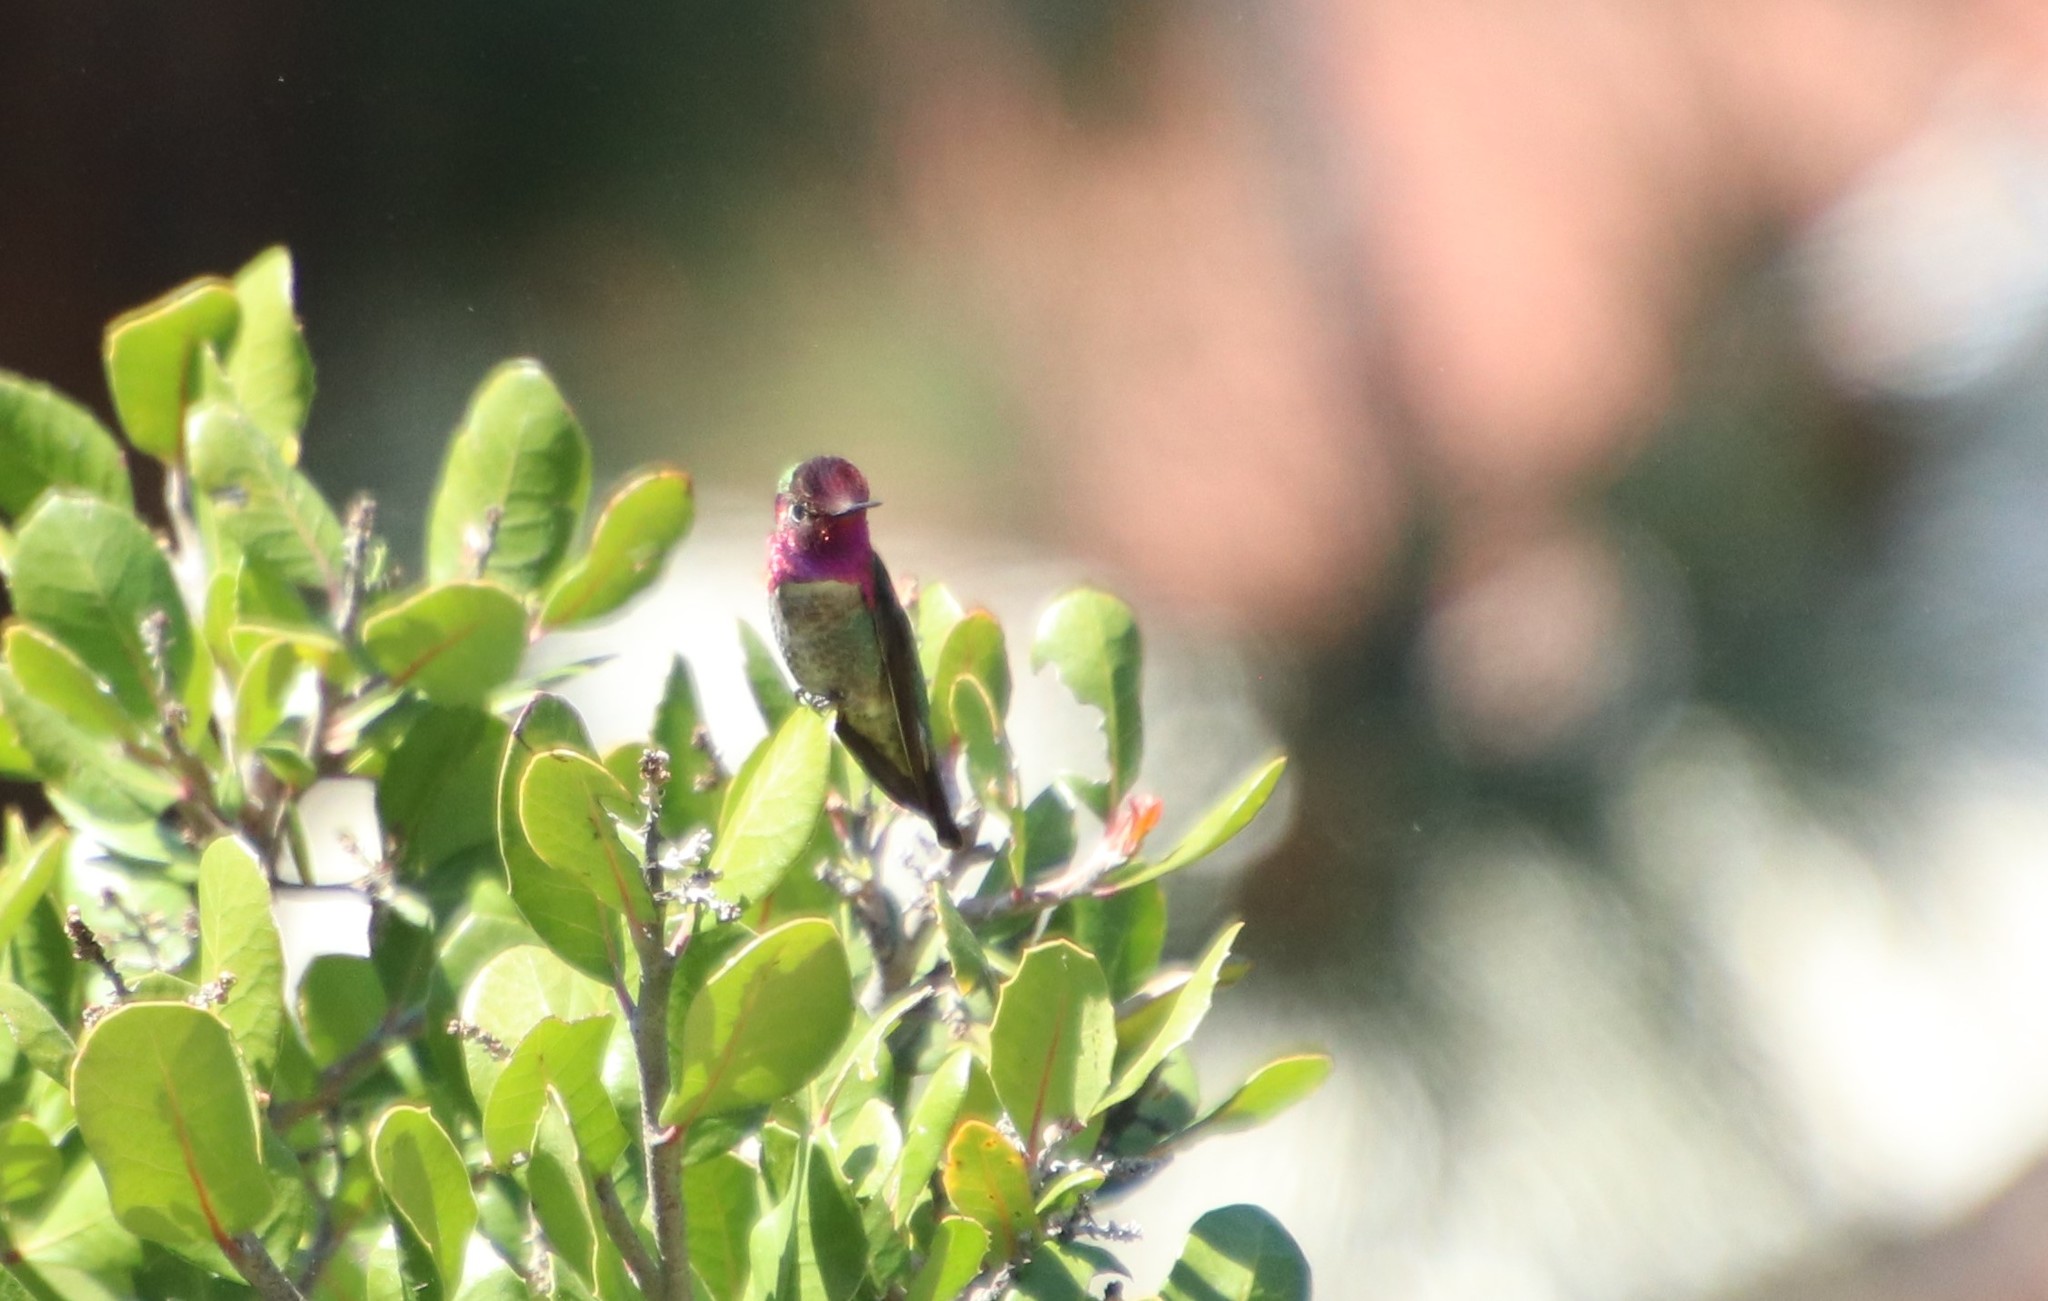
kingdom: Animalia
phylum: Chordata
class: Aves
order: Apodiformes
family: Trochilidae
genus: Calypte
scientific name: Calypte anna
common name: Anna's hummingbird
